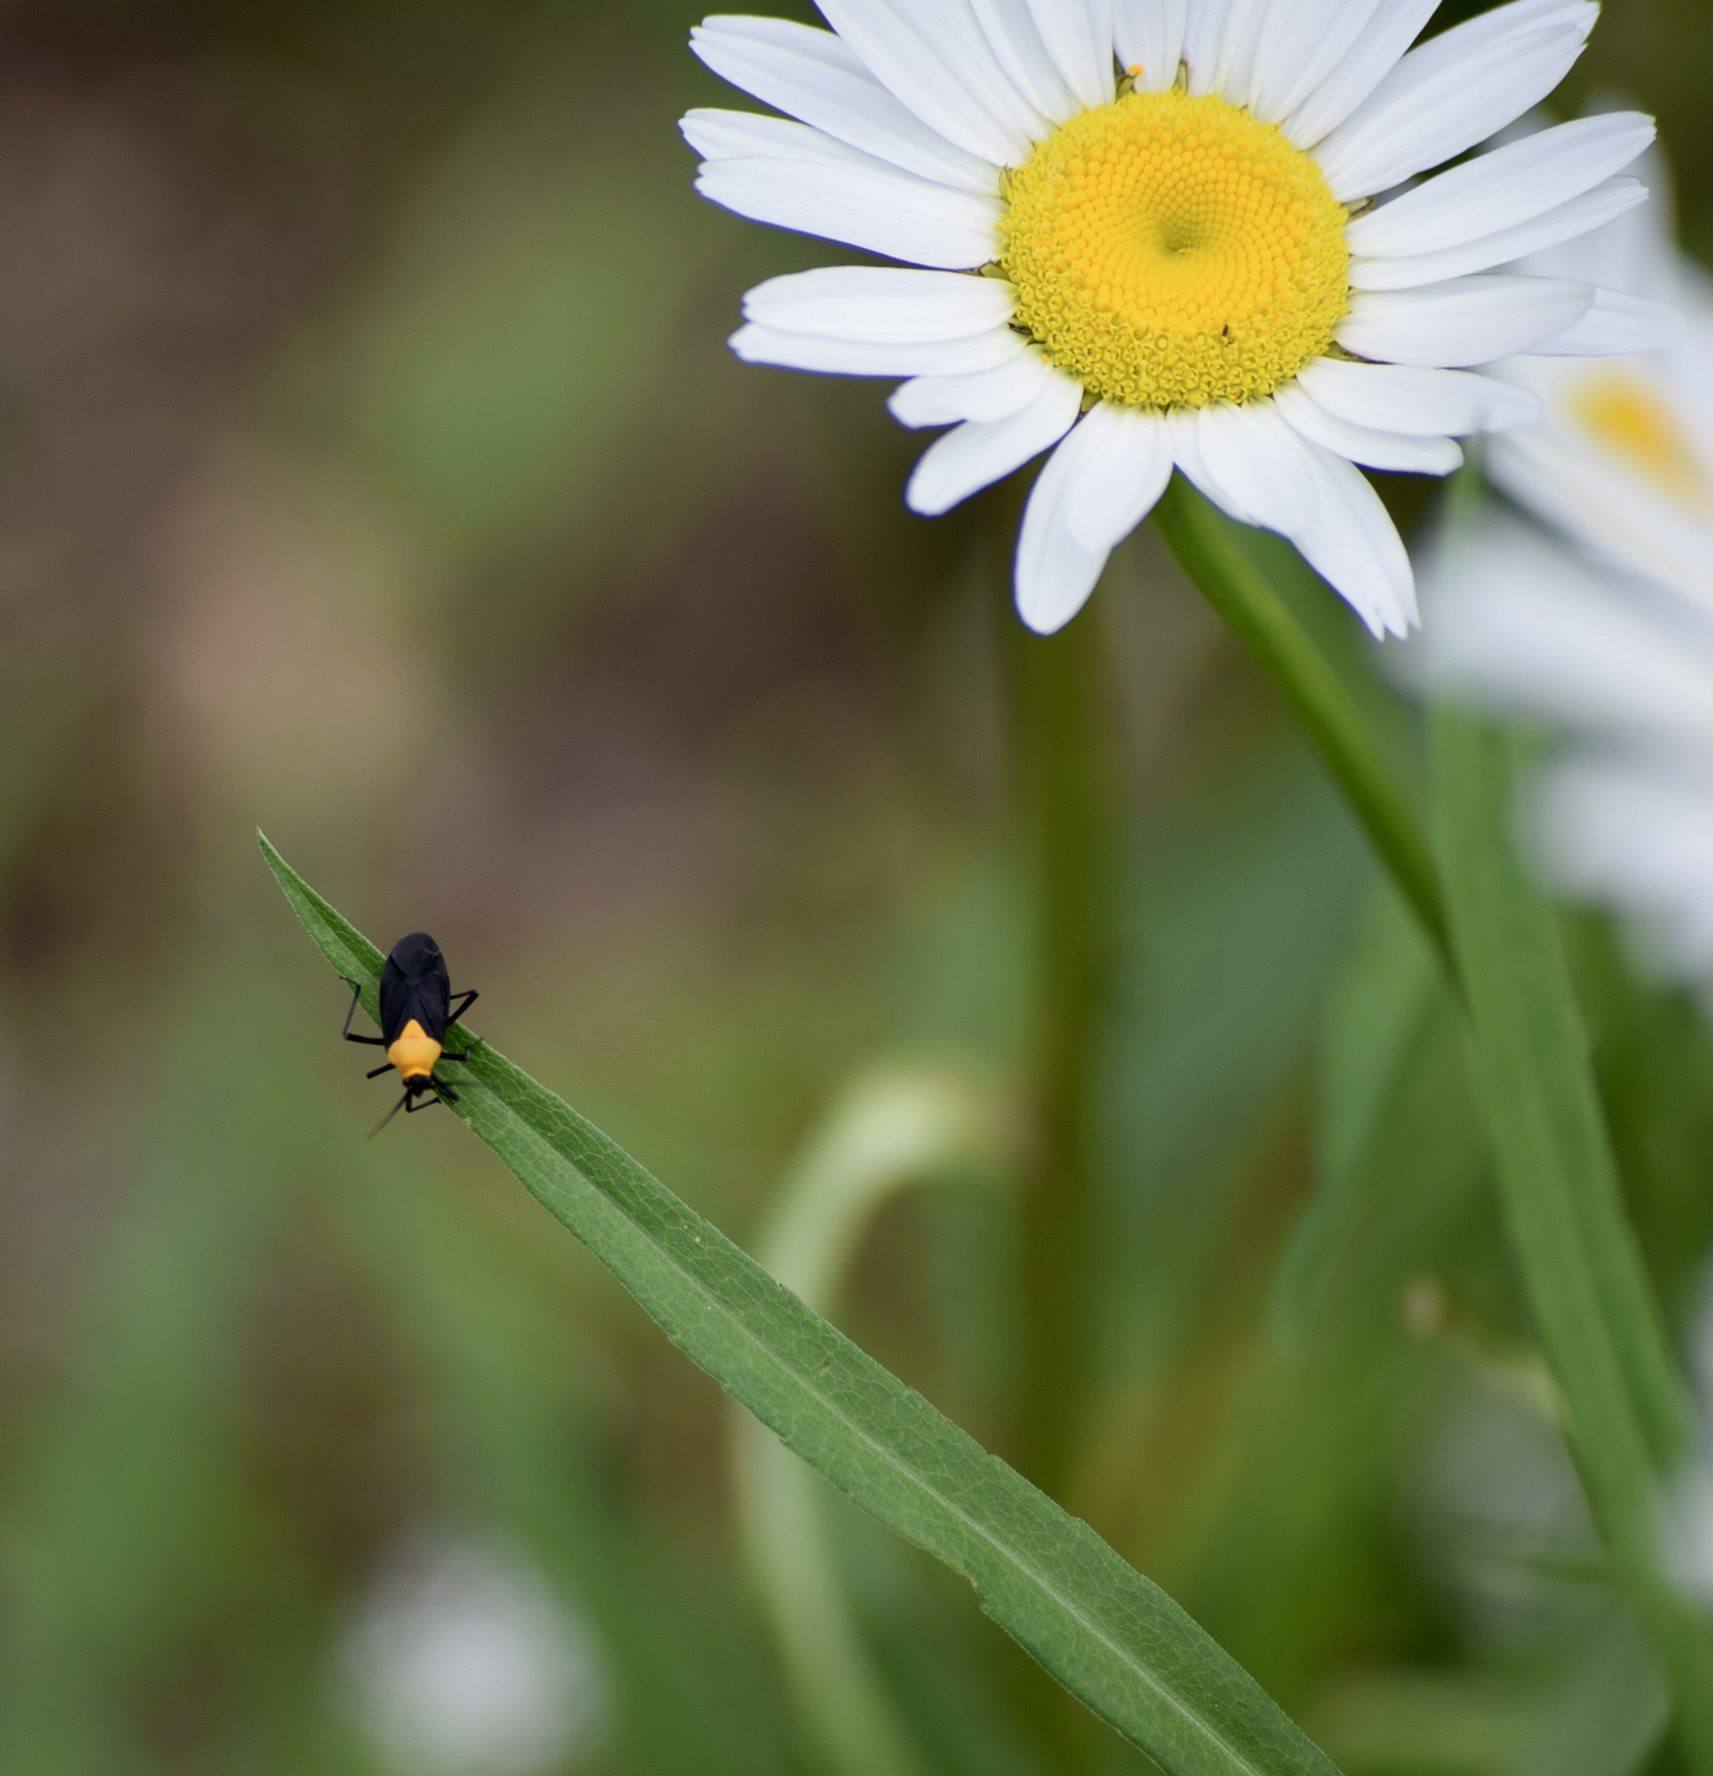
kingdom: Animalia
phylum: Arthropoda
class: Insecta
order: Hemiptera
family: Miridae
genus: Prepops
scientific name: Prepops insitivus
